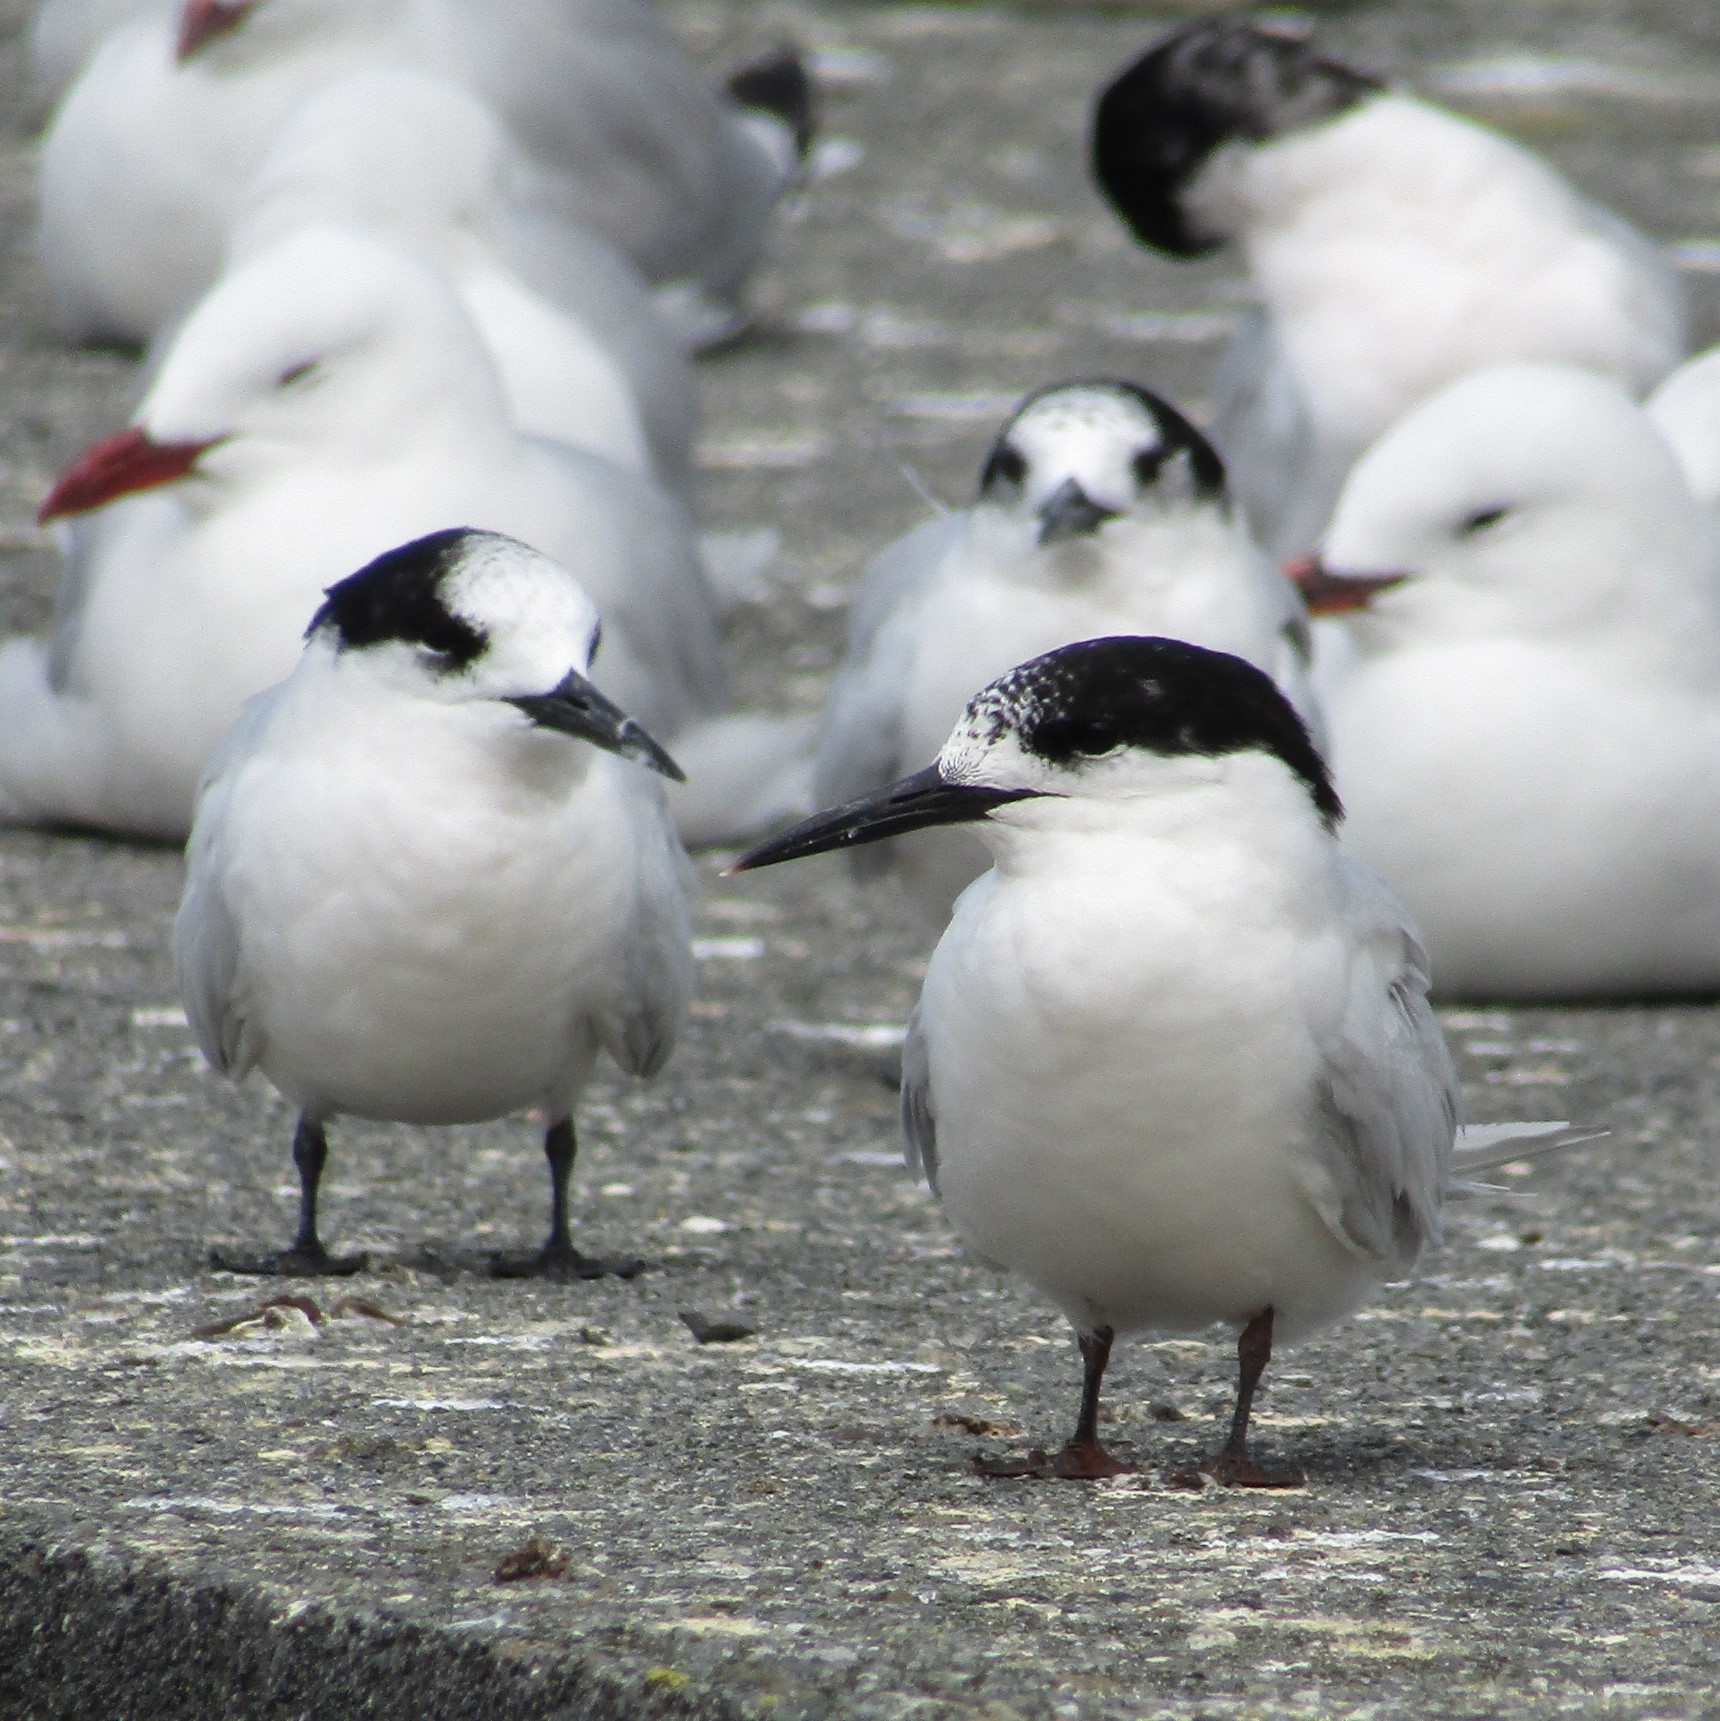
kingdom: Animalia
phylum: Chordata
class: Aves
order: Charadriiformes
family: Laridae
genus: Sterna
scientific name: Sterna striata
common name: White-fronted tern
